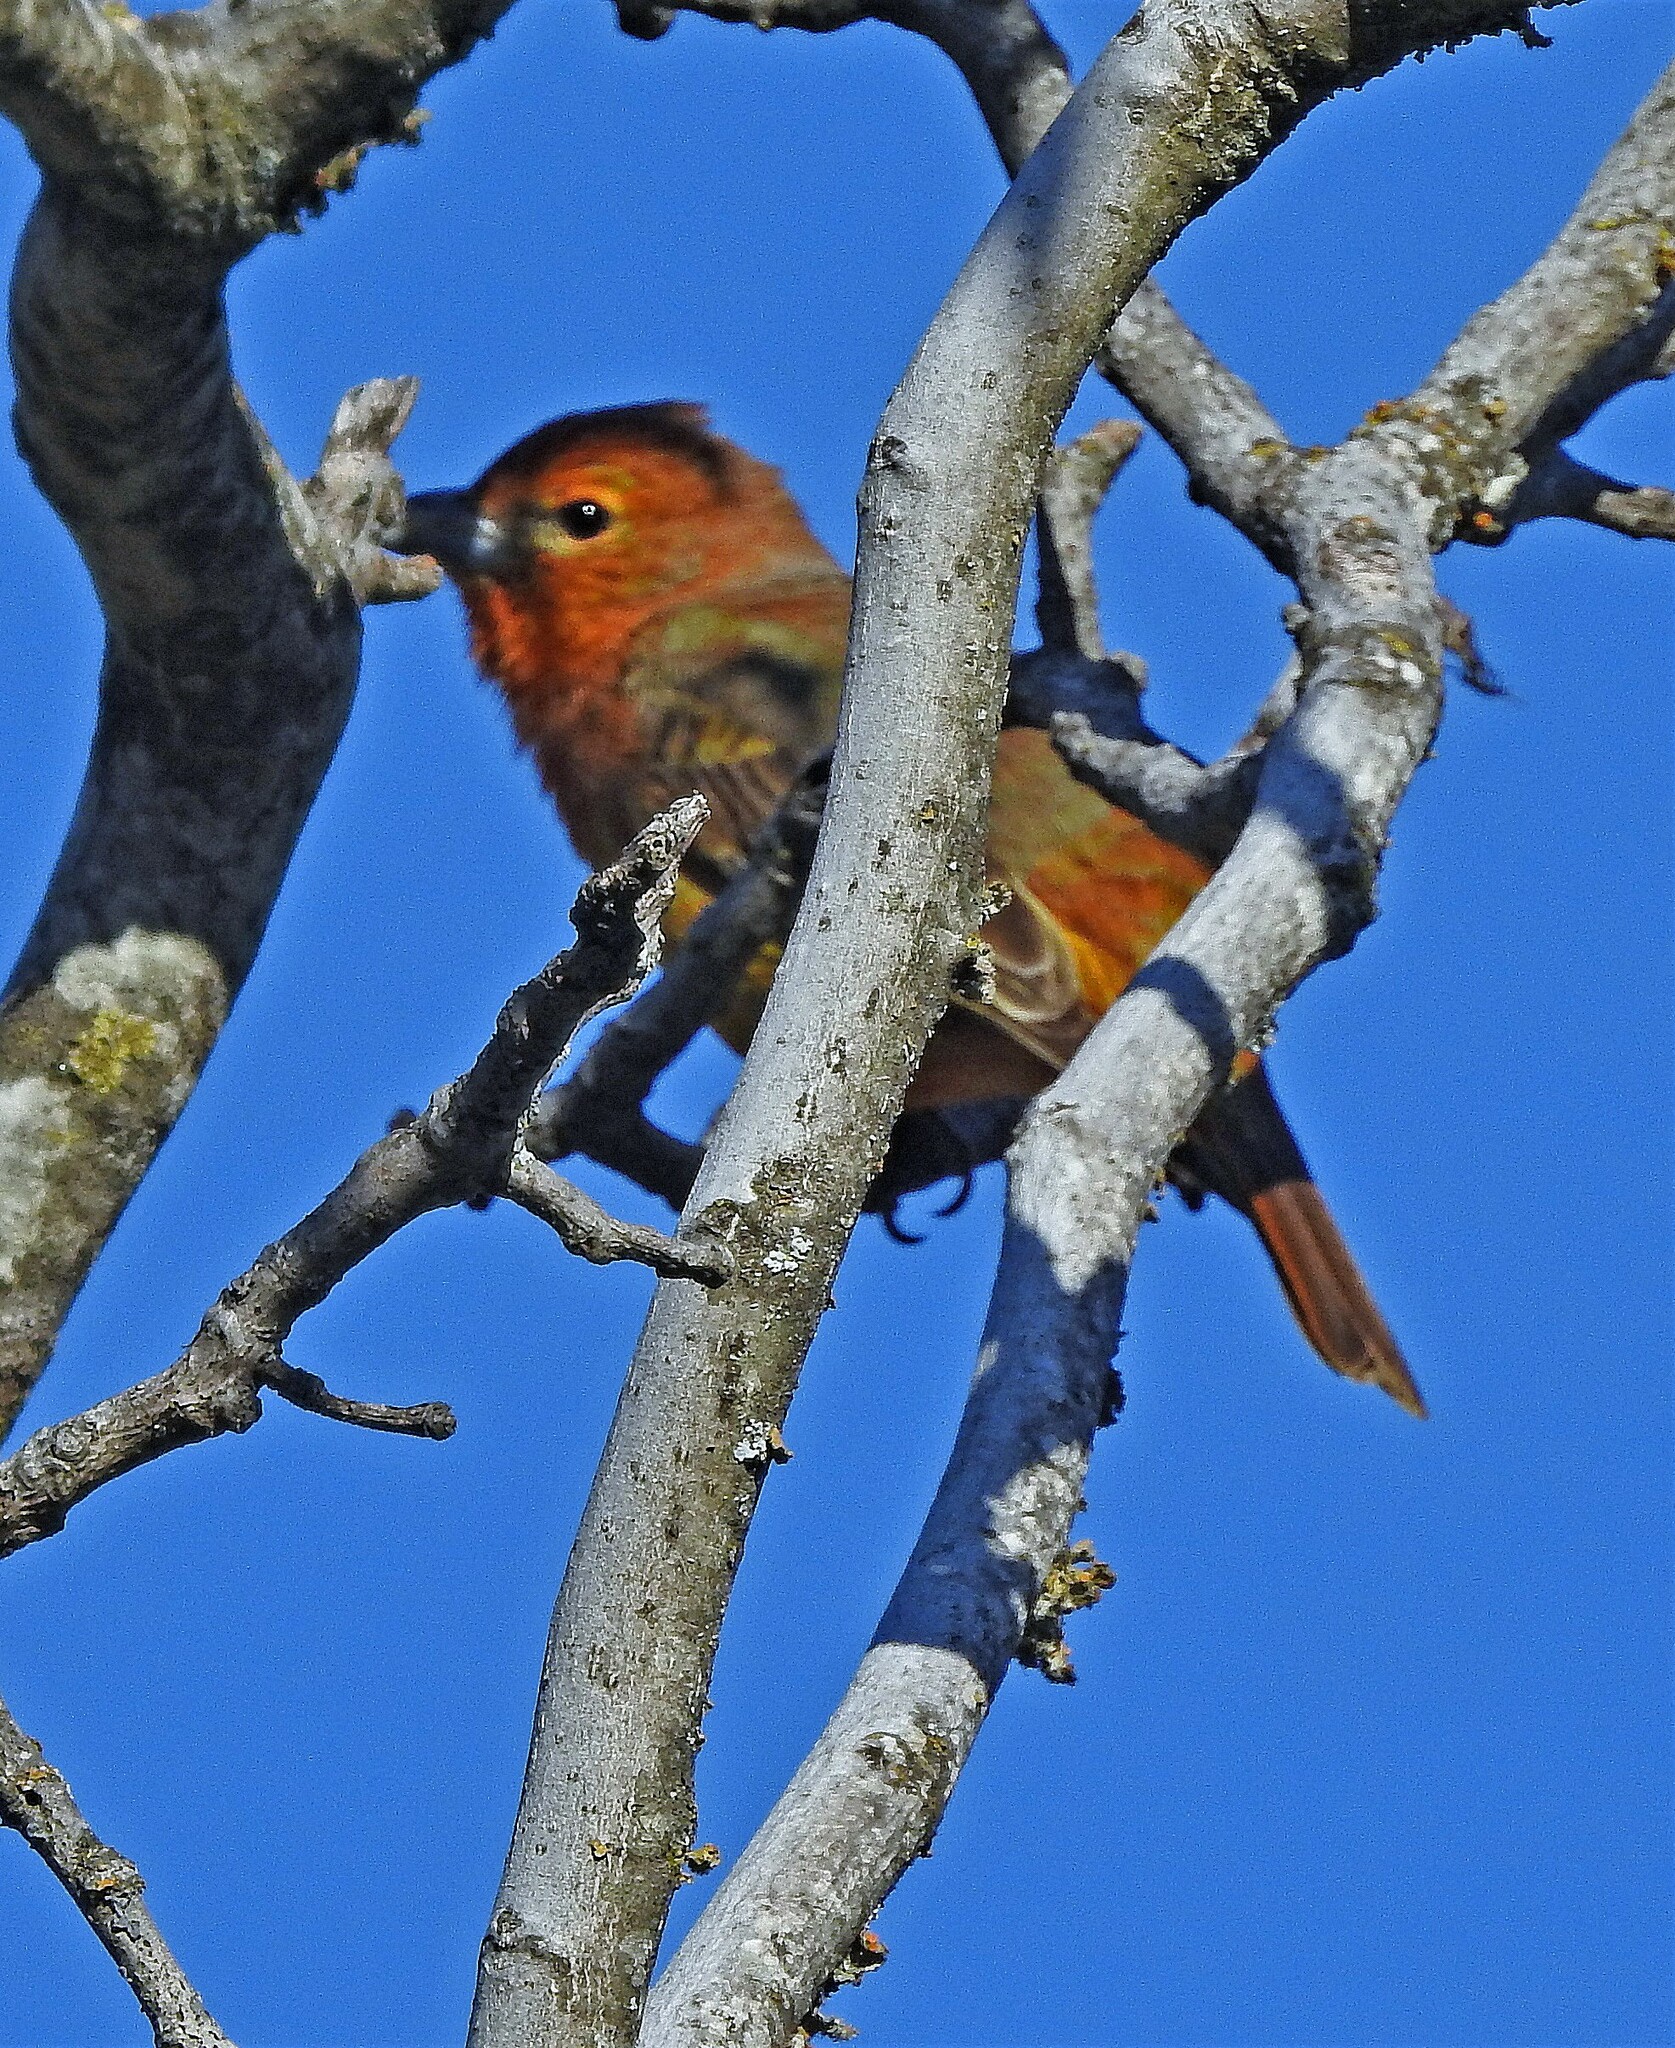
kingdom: Animalia
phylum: Chordata
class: Aves
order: Passeriformes
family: Cardinalidae
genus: Piranga
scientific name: Piranga flava
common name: Red tanager
